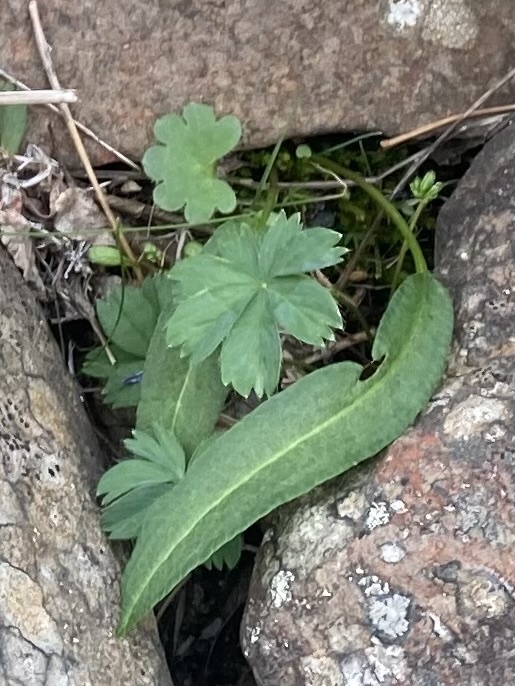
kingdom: Plantae
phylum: Tracheophyta
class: Magnoliopsida
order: Rosales
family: Rosaceae
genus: Potentilla
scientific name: Potentilla stipularis
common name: Circumpolar cinquefoil
